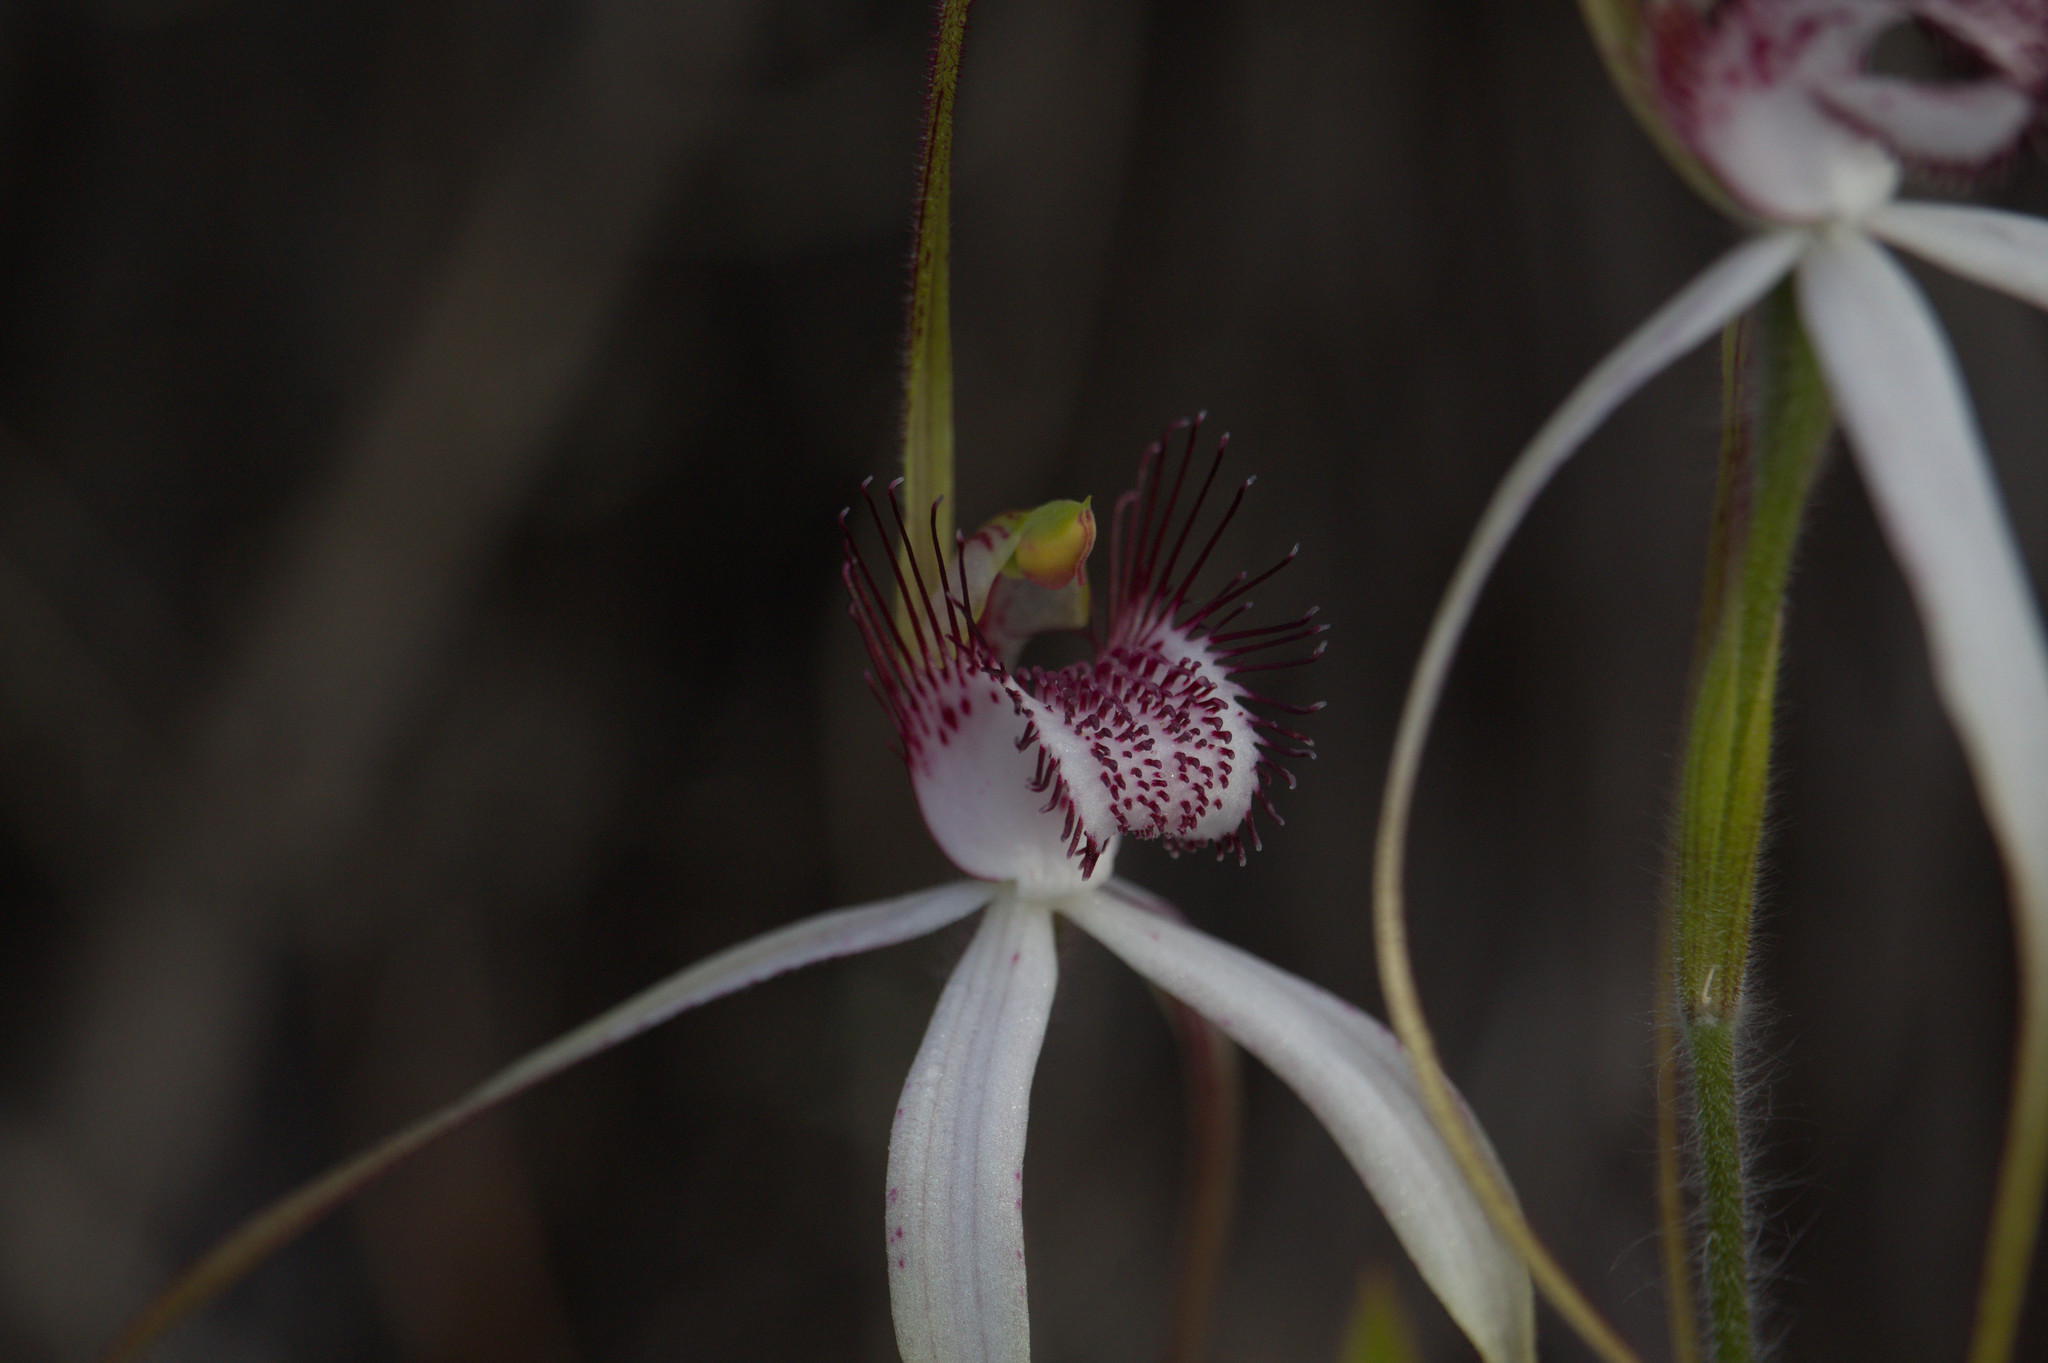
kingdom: Plantae
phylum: Tracheophyta
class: Liliopsida
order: Asparagales
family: Orchidaceae
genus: Caladenia
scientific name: Caladenia longicauda
